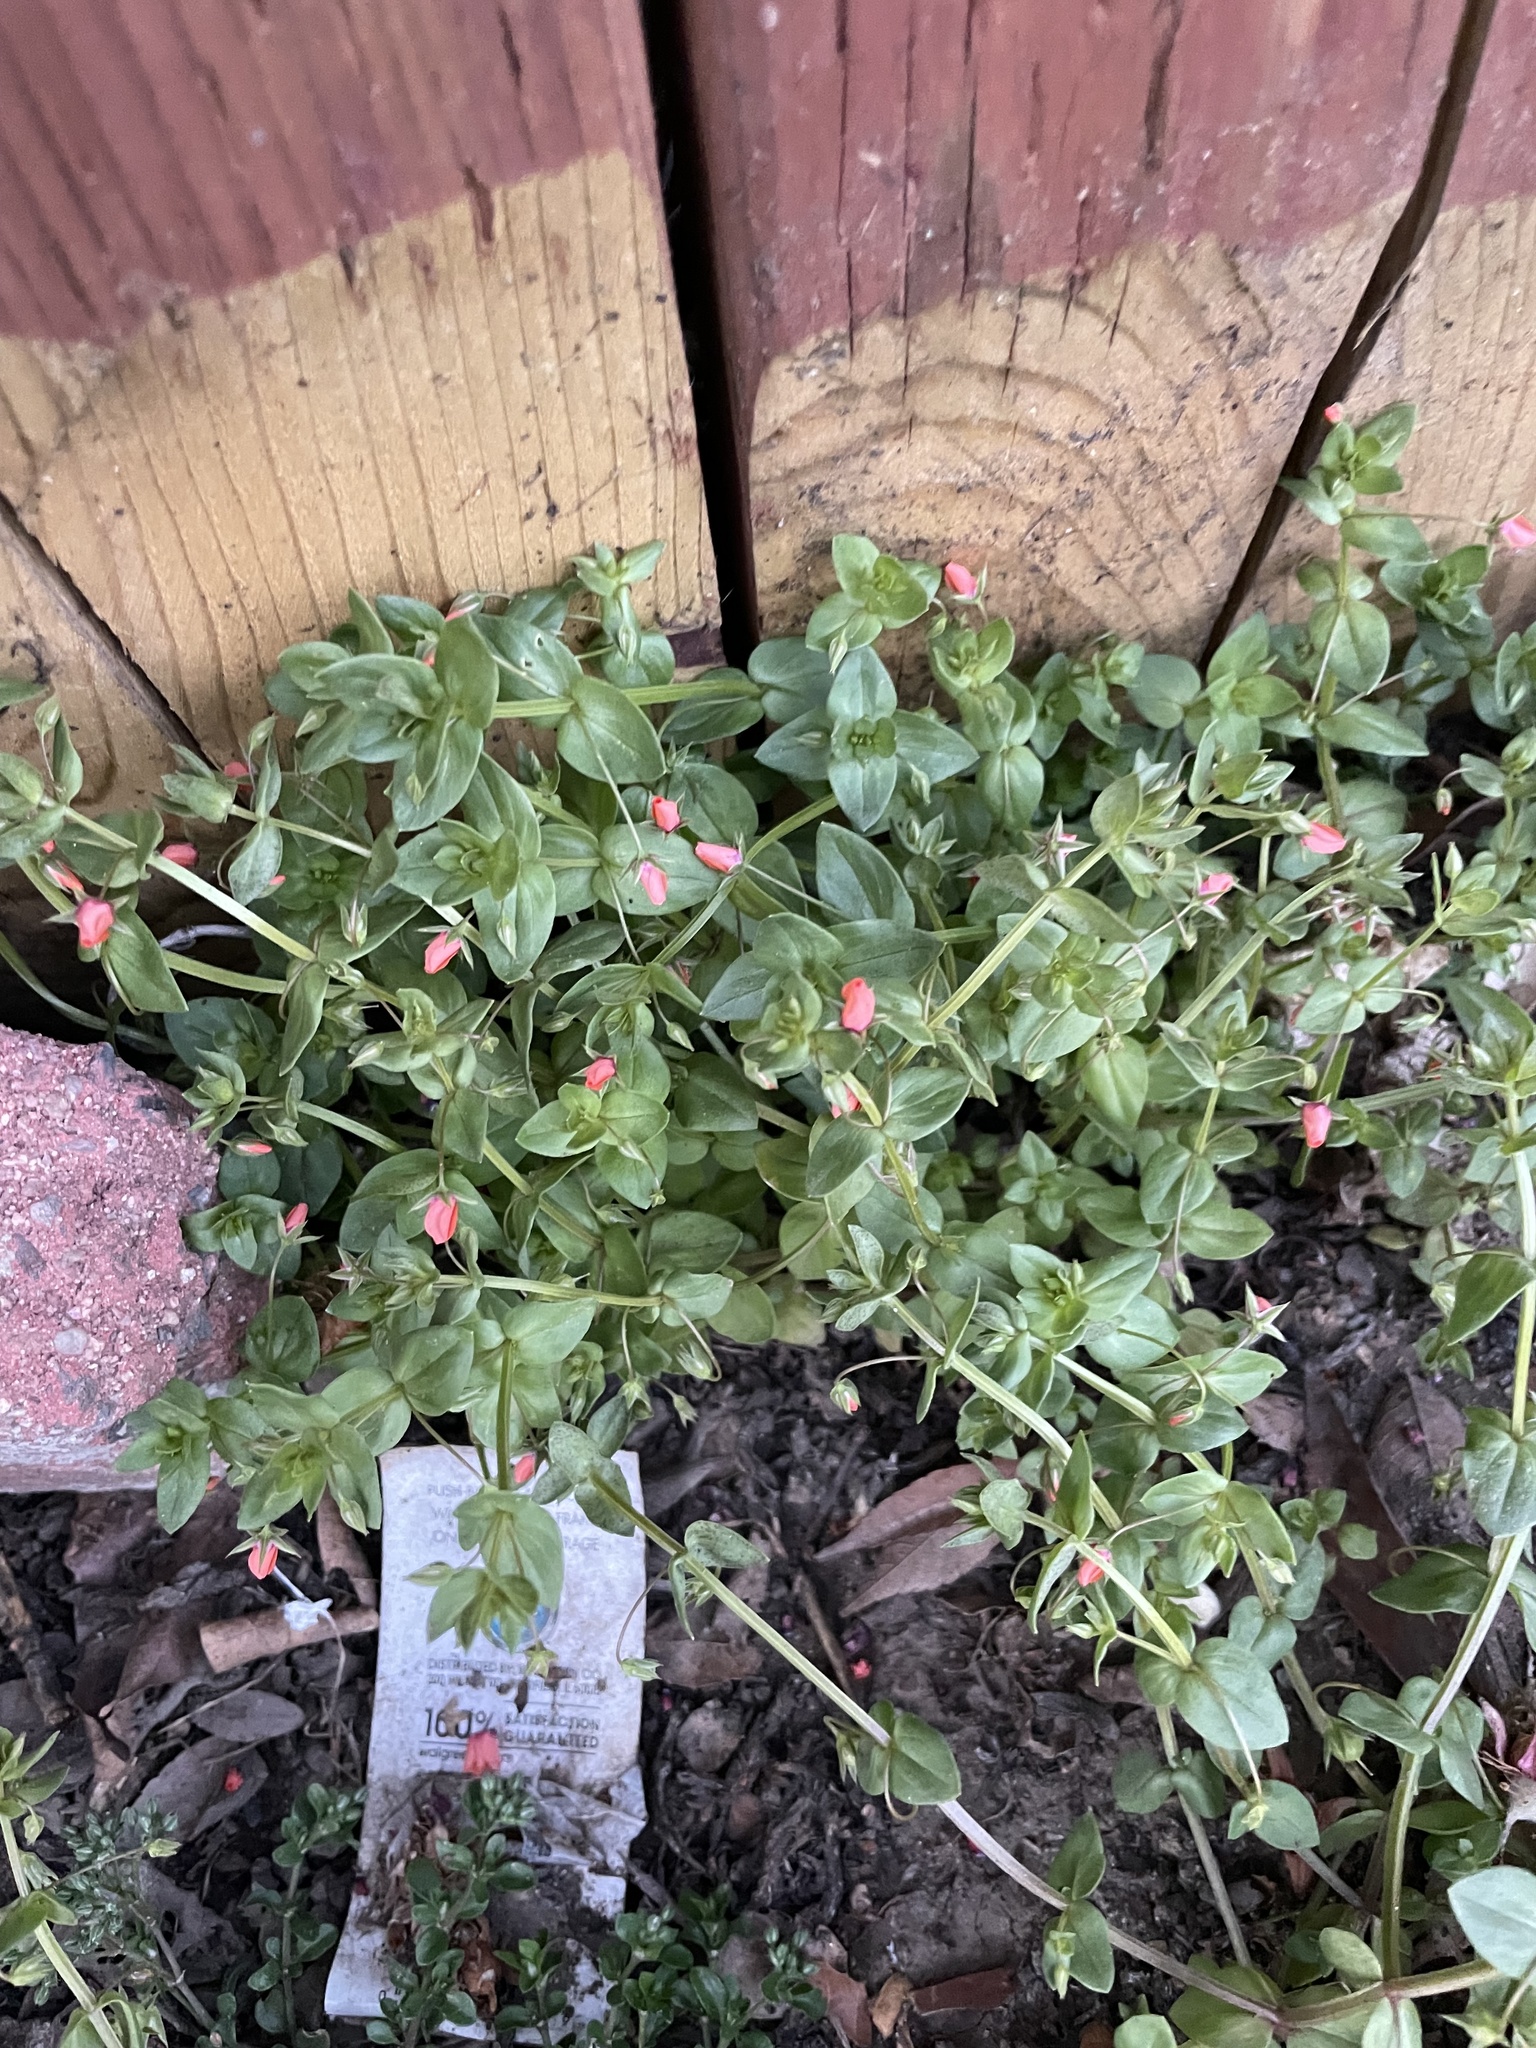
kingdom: Plantae
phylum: Tracheophyta
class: Magnoliopsida
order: Ericales
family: Primulaceae
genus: Lysimachia
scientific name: Lysimachia arvensis
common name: Scarlet pimpernel
